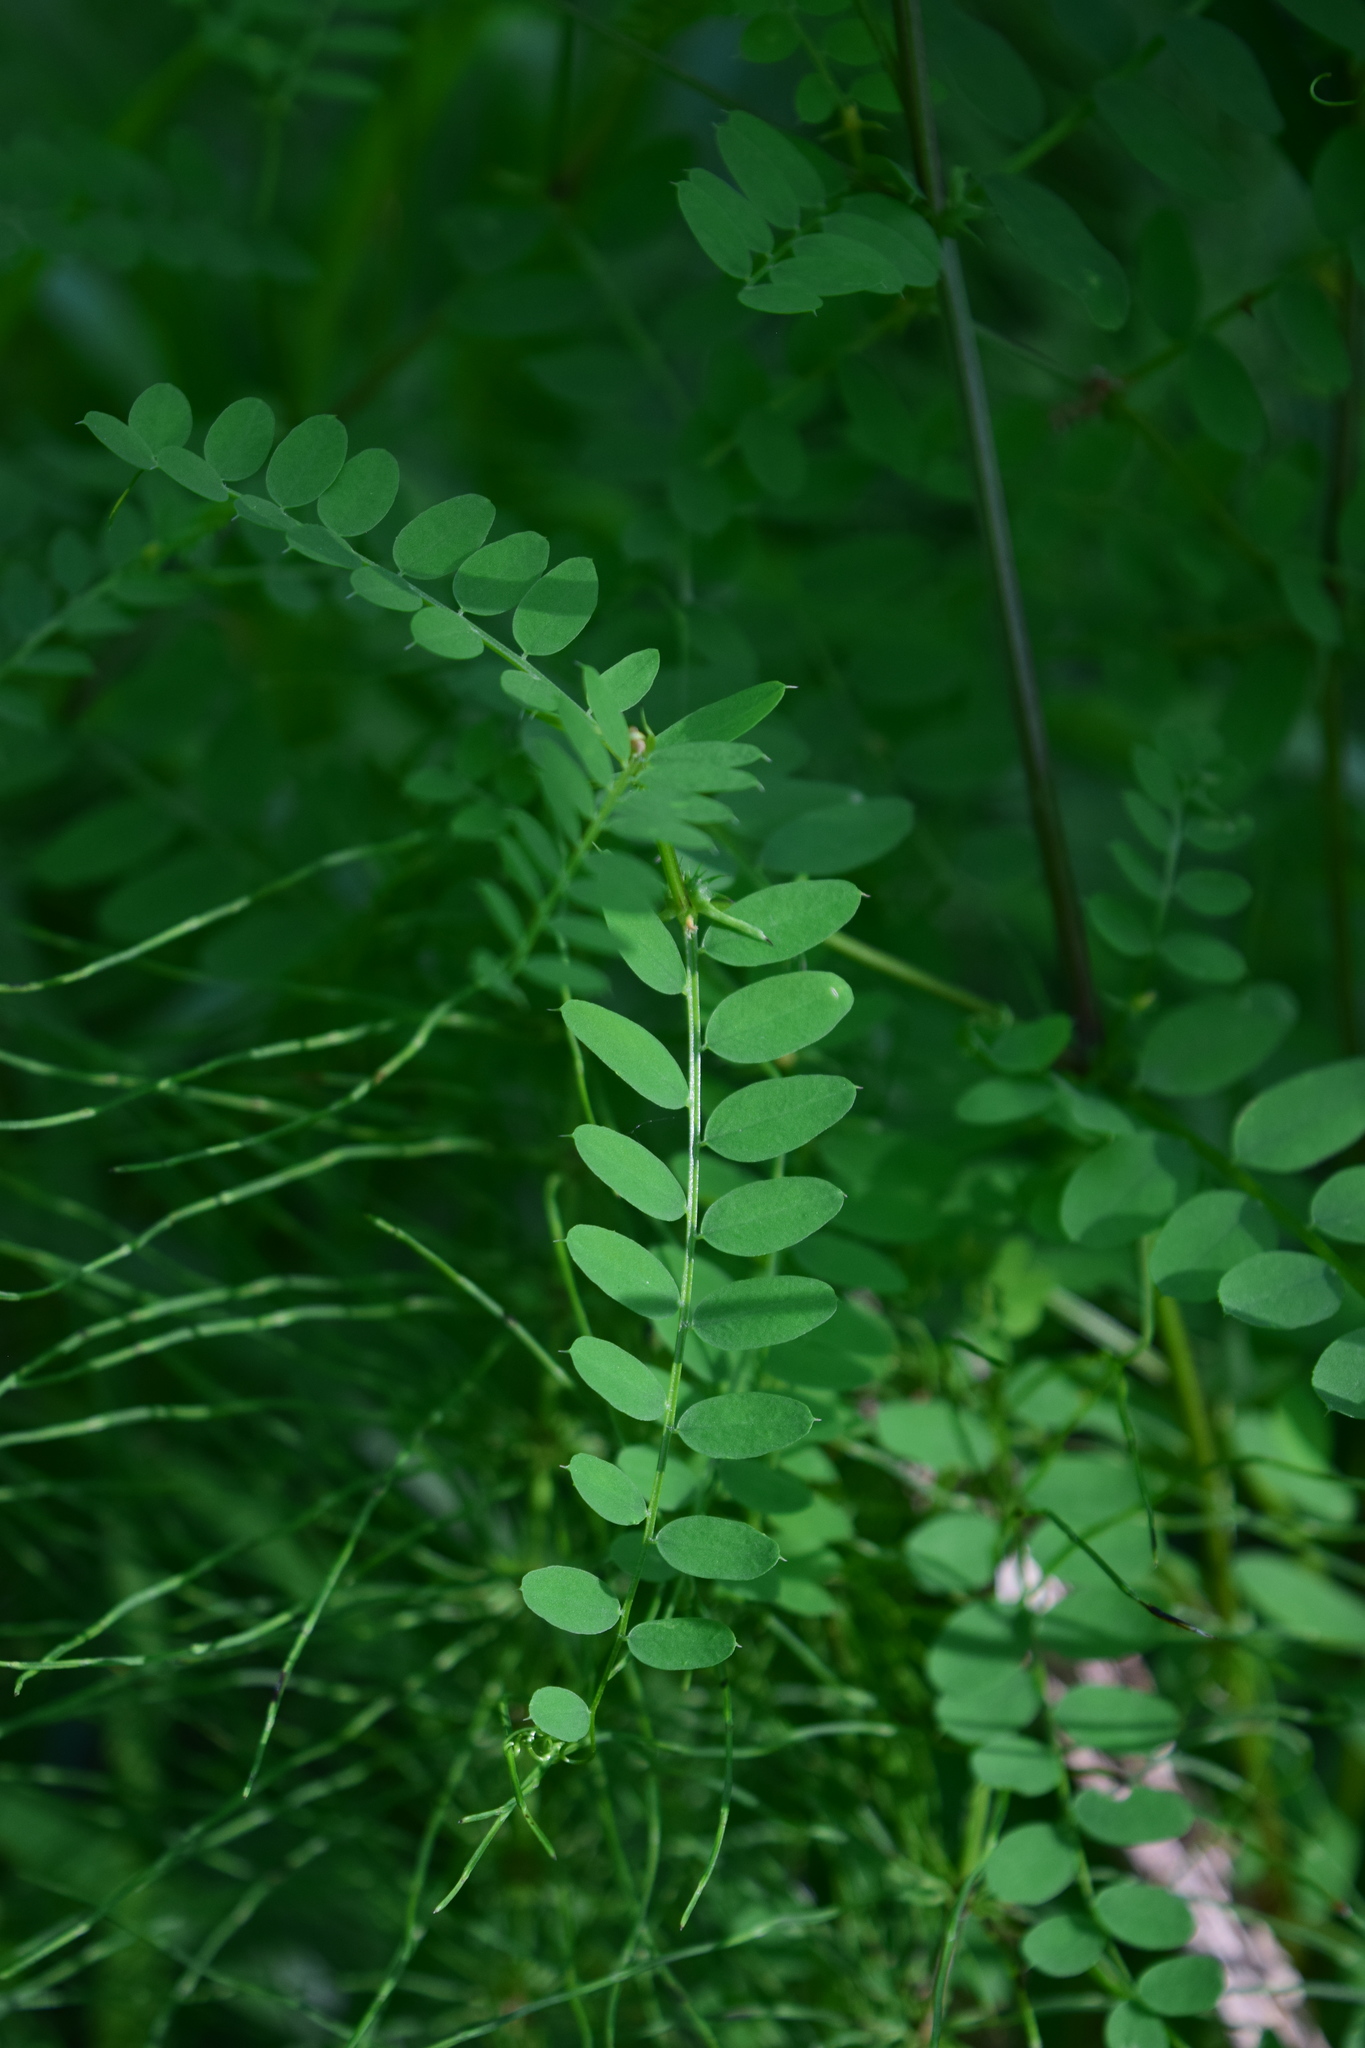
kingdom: Plantae
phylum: Tracheophyta
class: Magnoliopsida
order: Fabales
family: Fabaceae
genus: Vicia
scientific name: Vicia sylvatica
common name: Wood vetch
